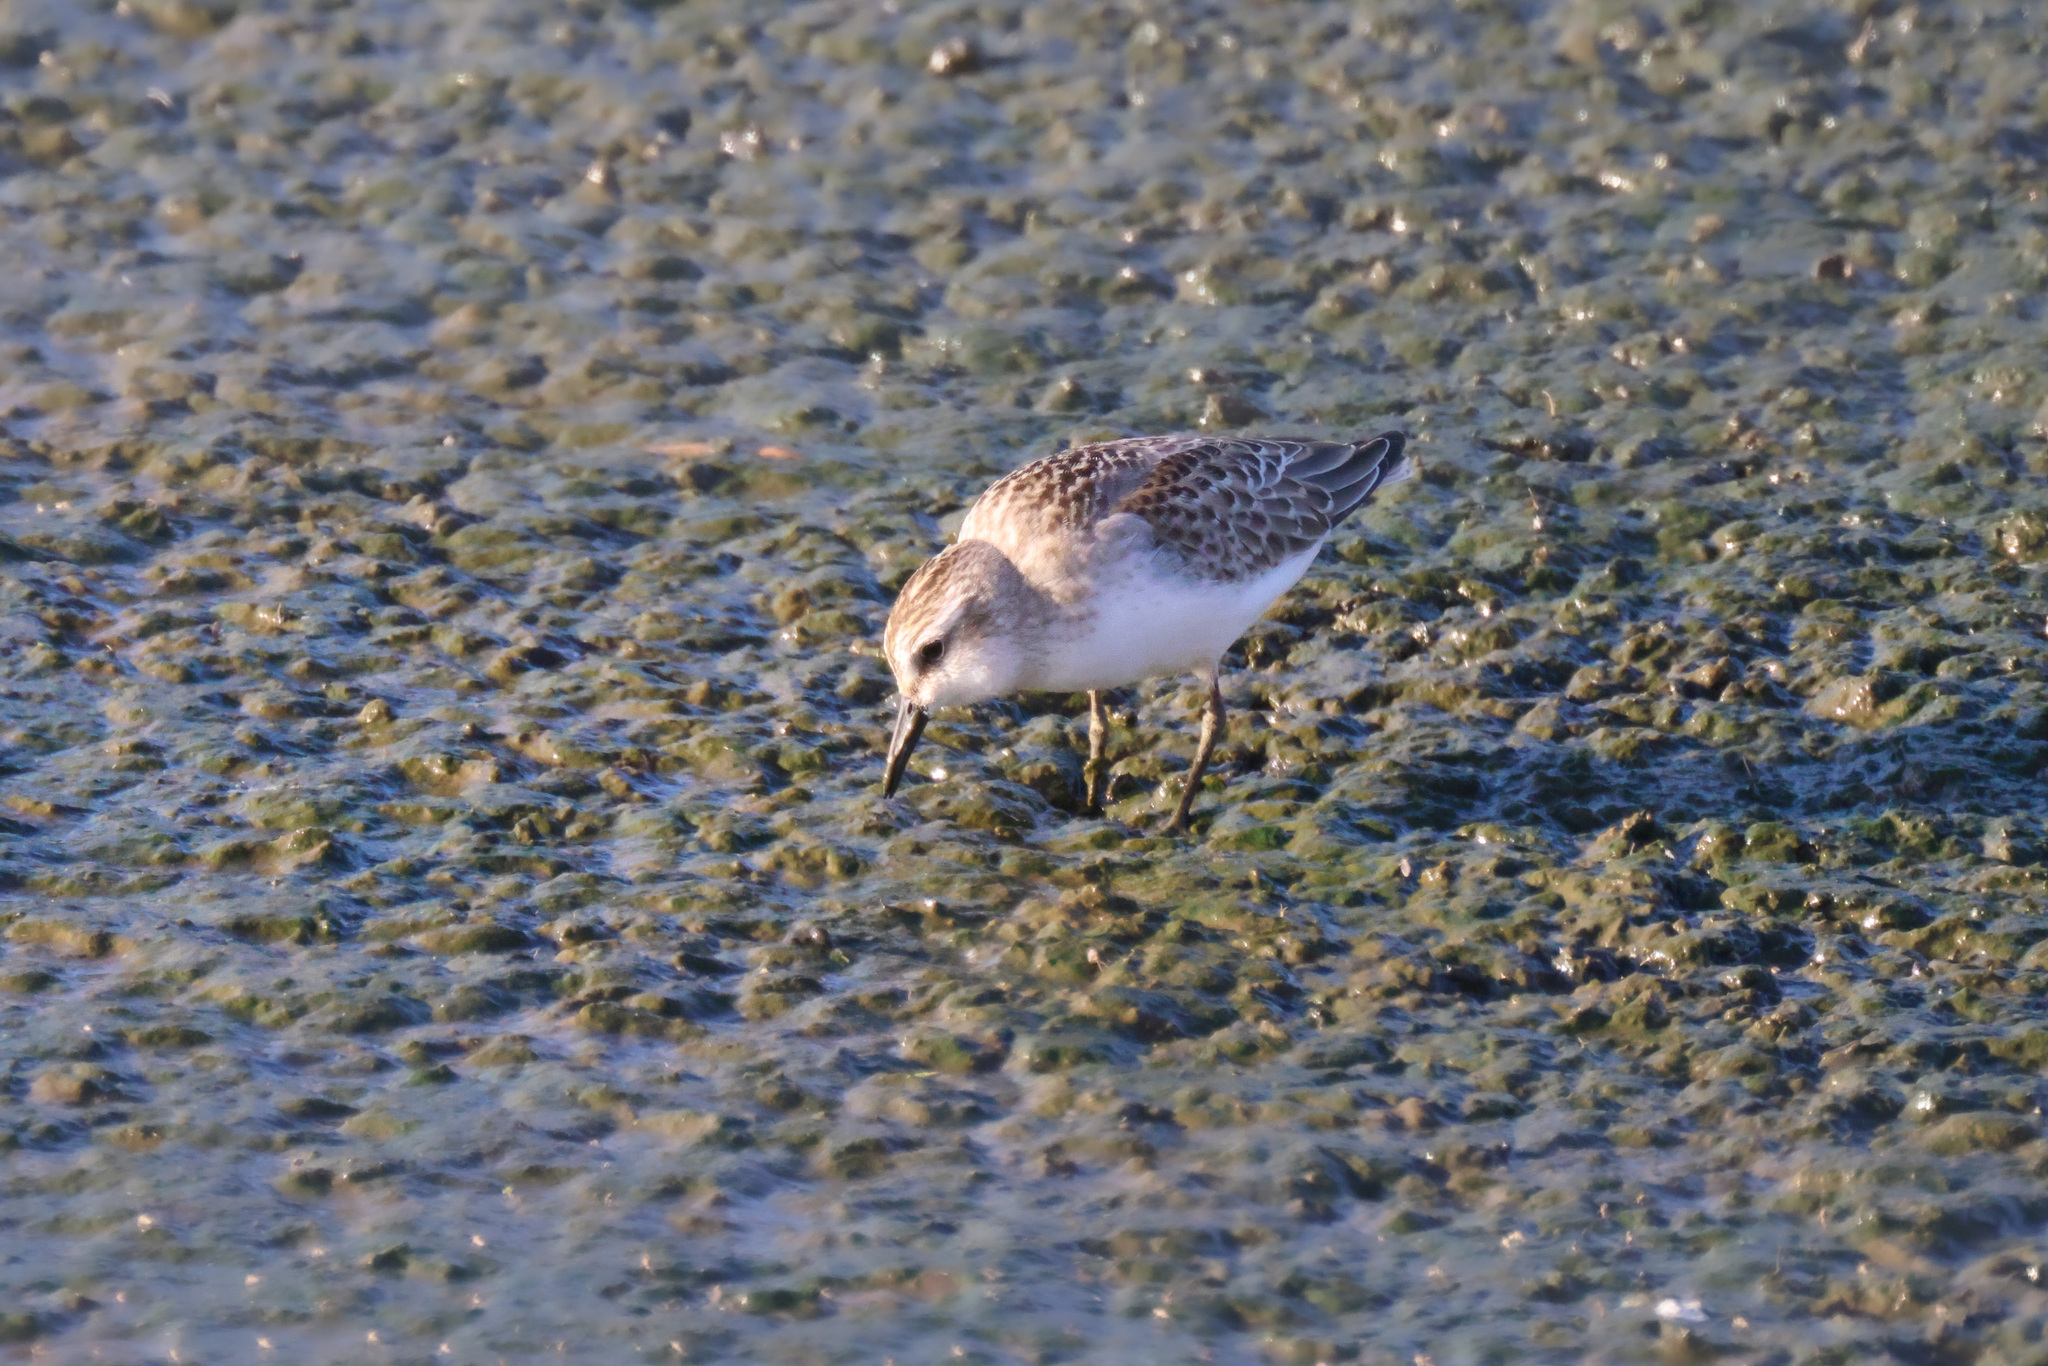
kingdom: Animalia
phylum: Chordata
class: Aves
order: Charadriiformes
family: Scolopacidae
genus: Calidris
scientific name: Calidris pusilla
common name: Semipalmated sandpiper
